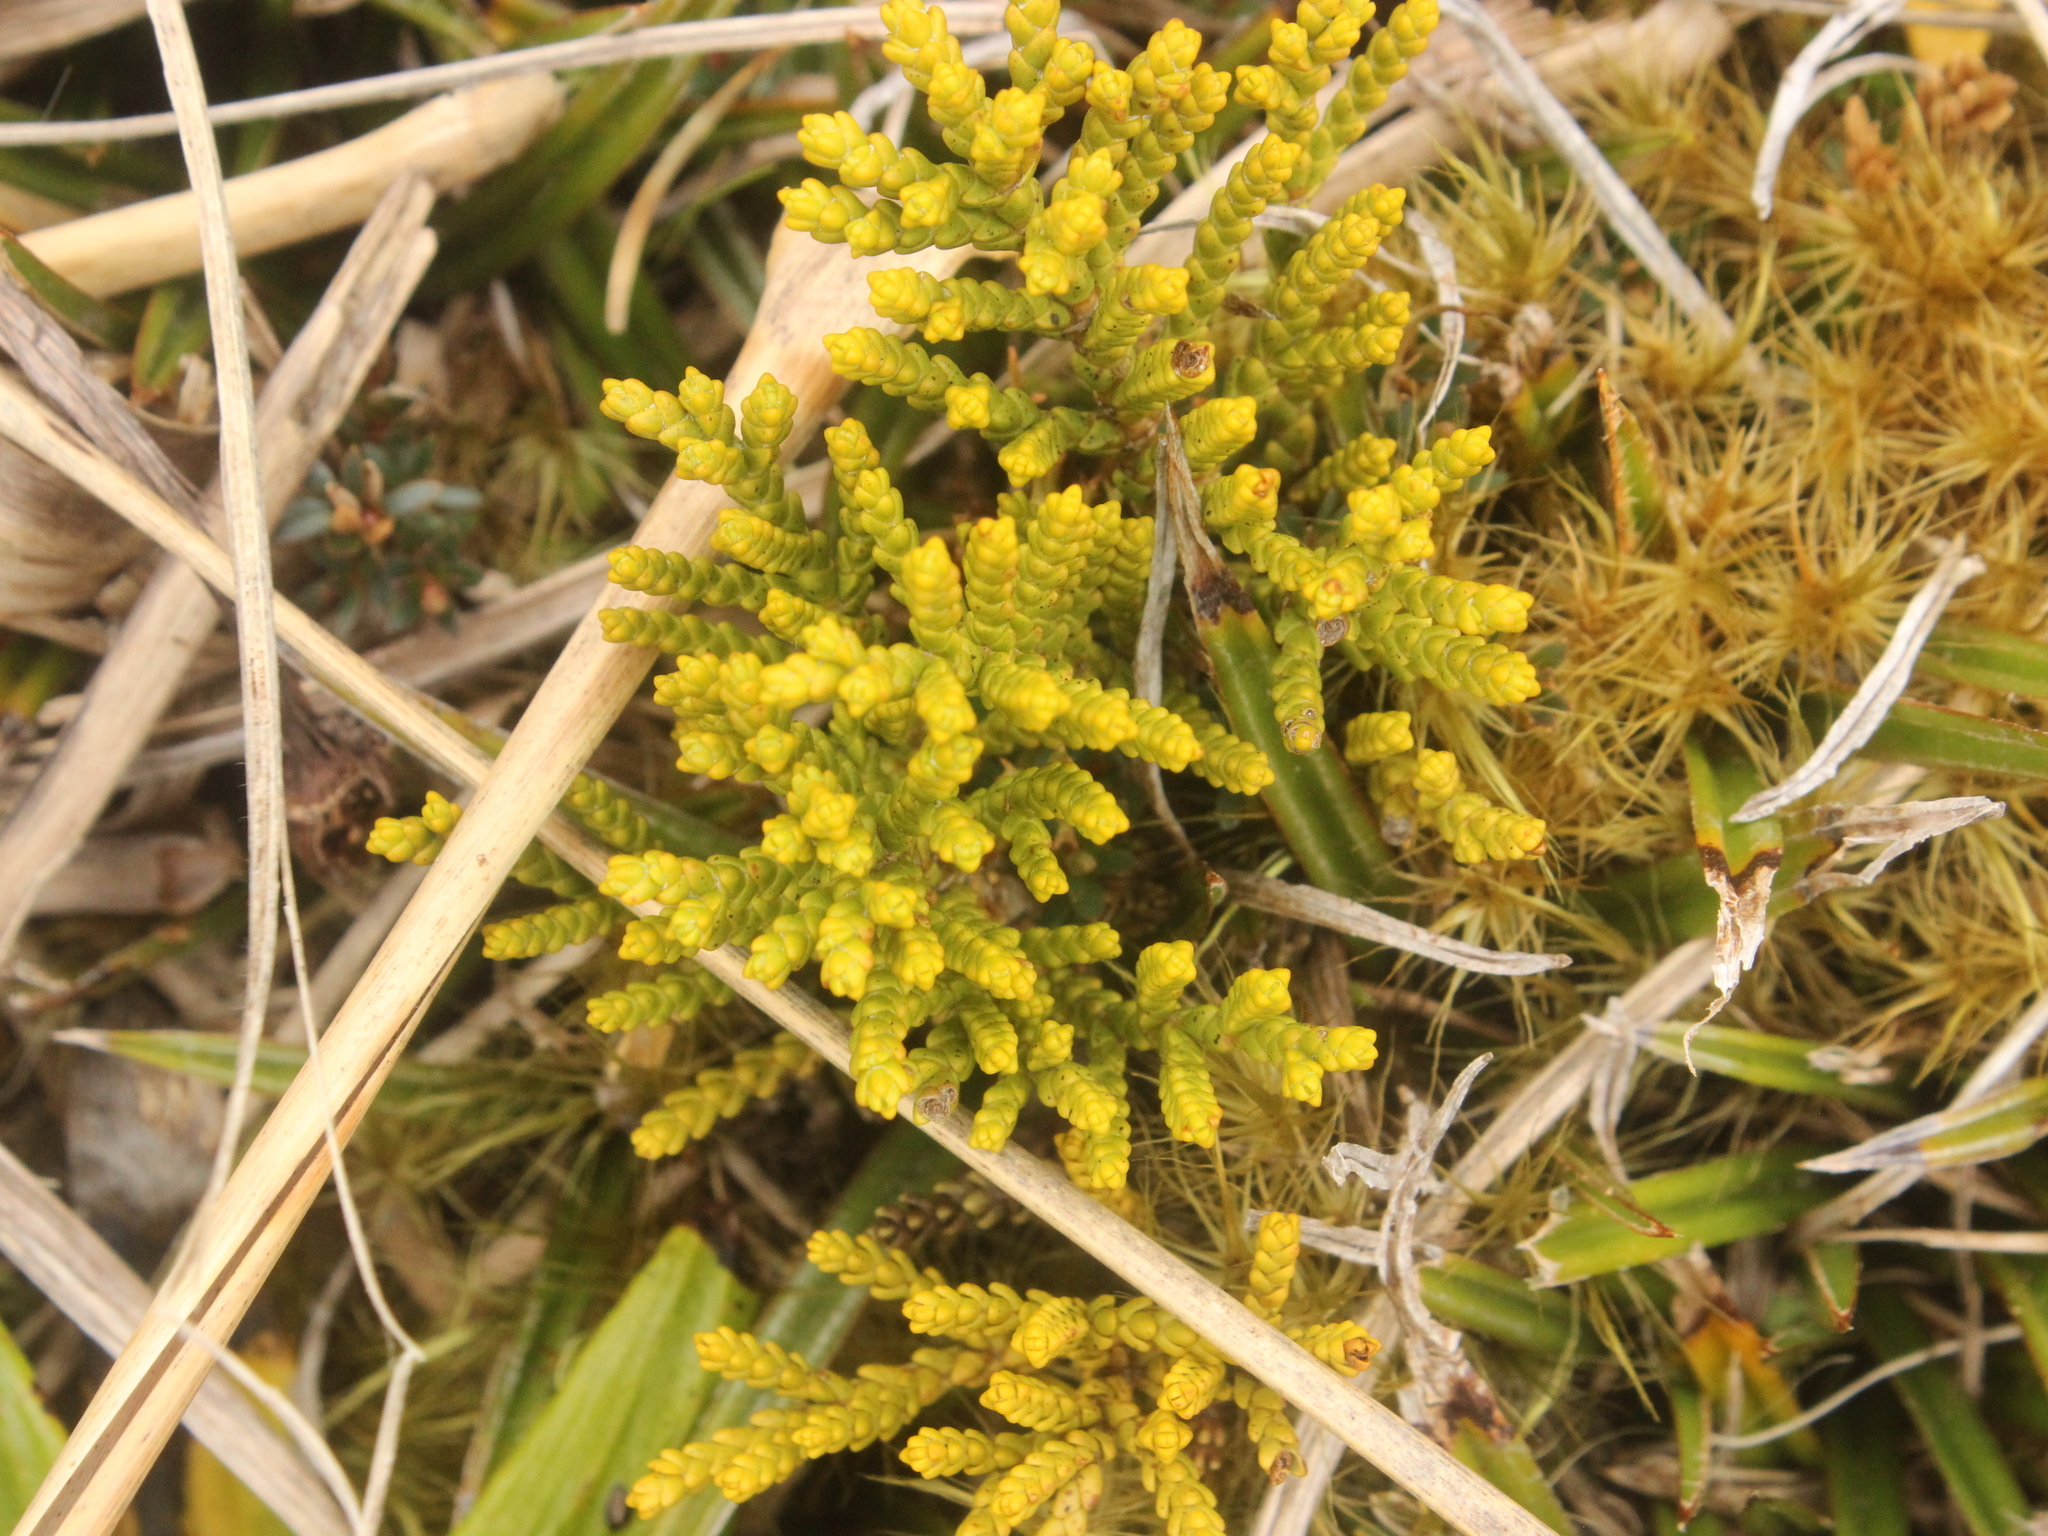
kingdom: Plantae
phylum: Tracheophyta
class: Magnoliopsida
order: Lamiales
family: Plantaginaceae
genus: Veronica
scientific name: Veronica tetragona
